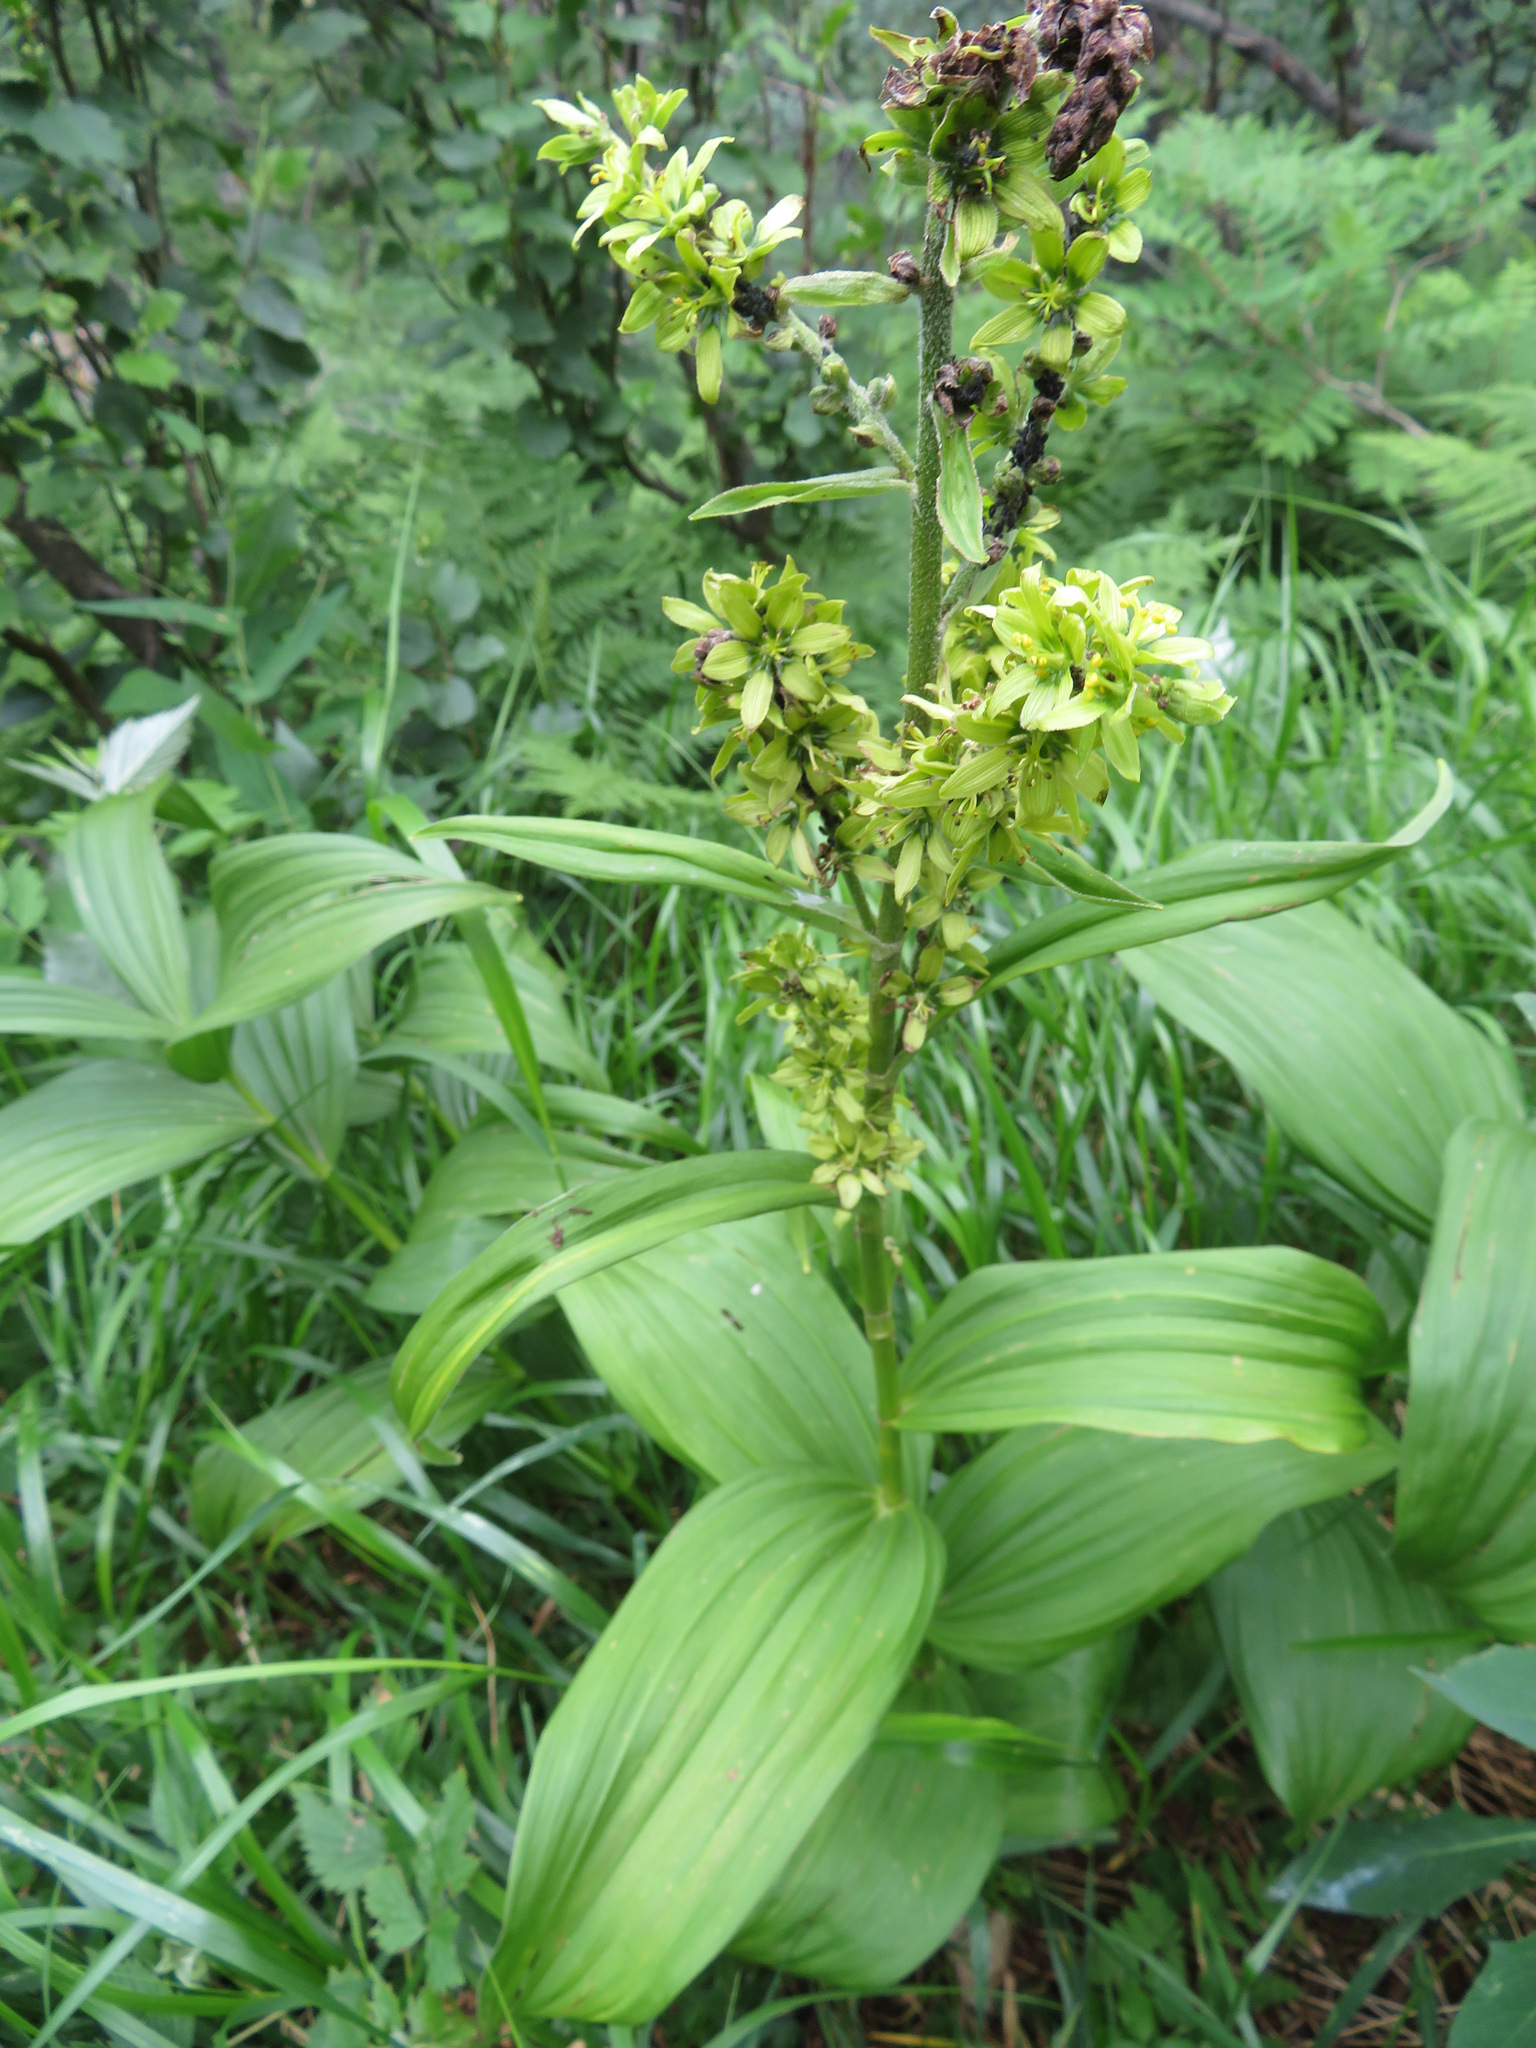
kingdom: Plantae
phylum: Tracheophyta
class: Liliopsida
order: Liliales
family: Melanthiaceae
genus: Veratrum
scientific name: Veratrum lobelianum
